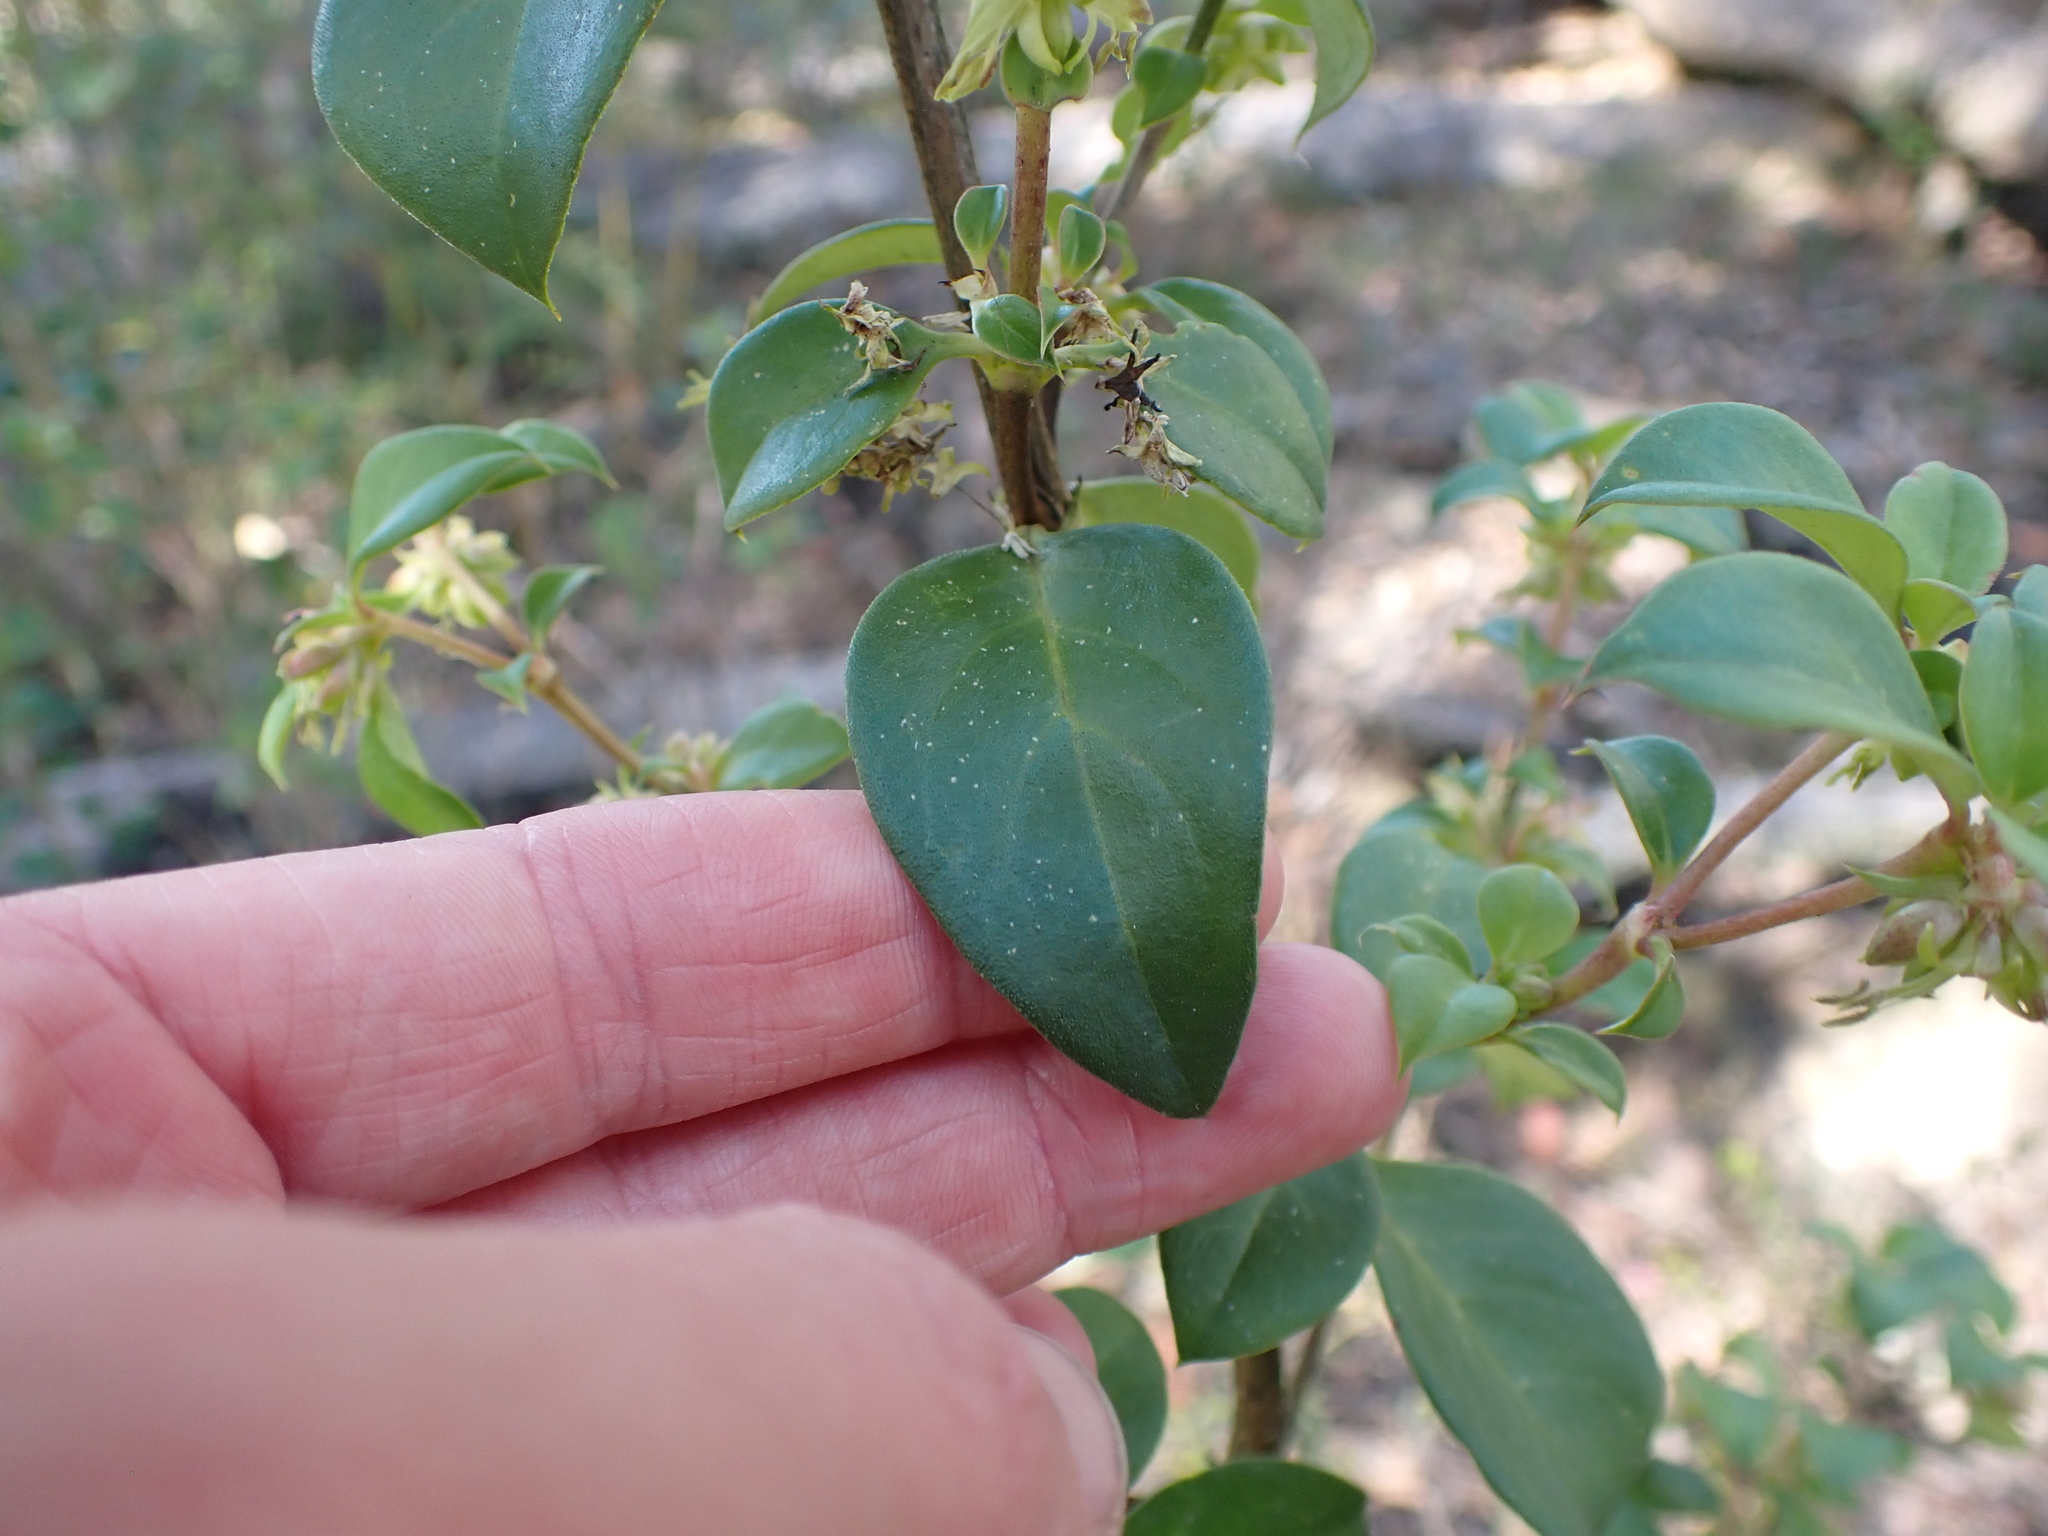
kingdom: Plantae
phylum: Tracheophyta
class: Magnoliopsida
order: Gentianales
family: Rubiaceae
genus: Coprosma
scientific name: Coprosma hirtella
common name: Rough coprosma
